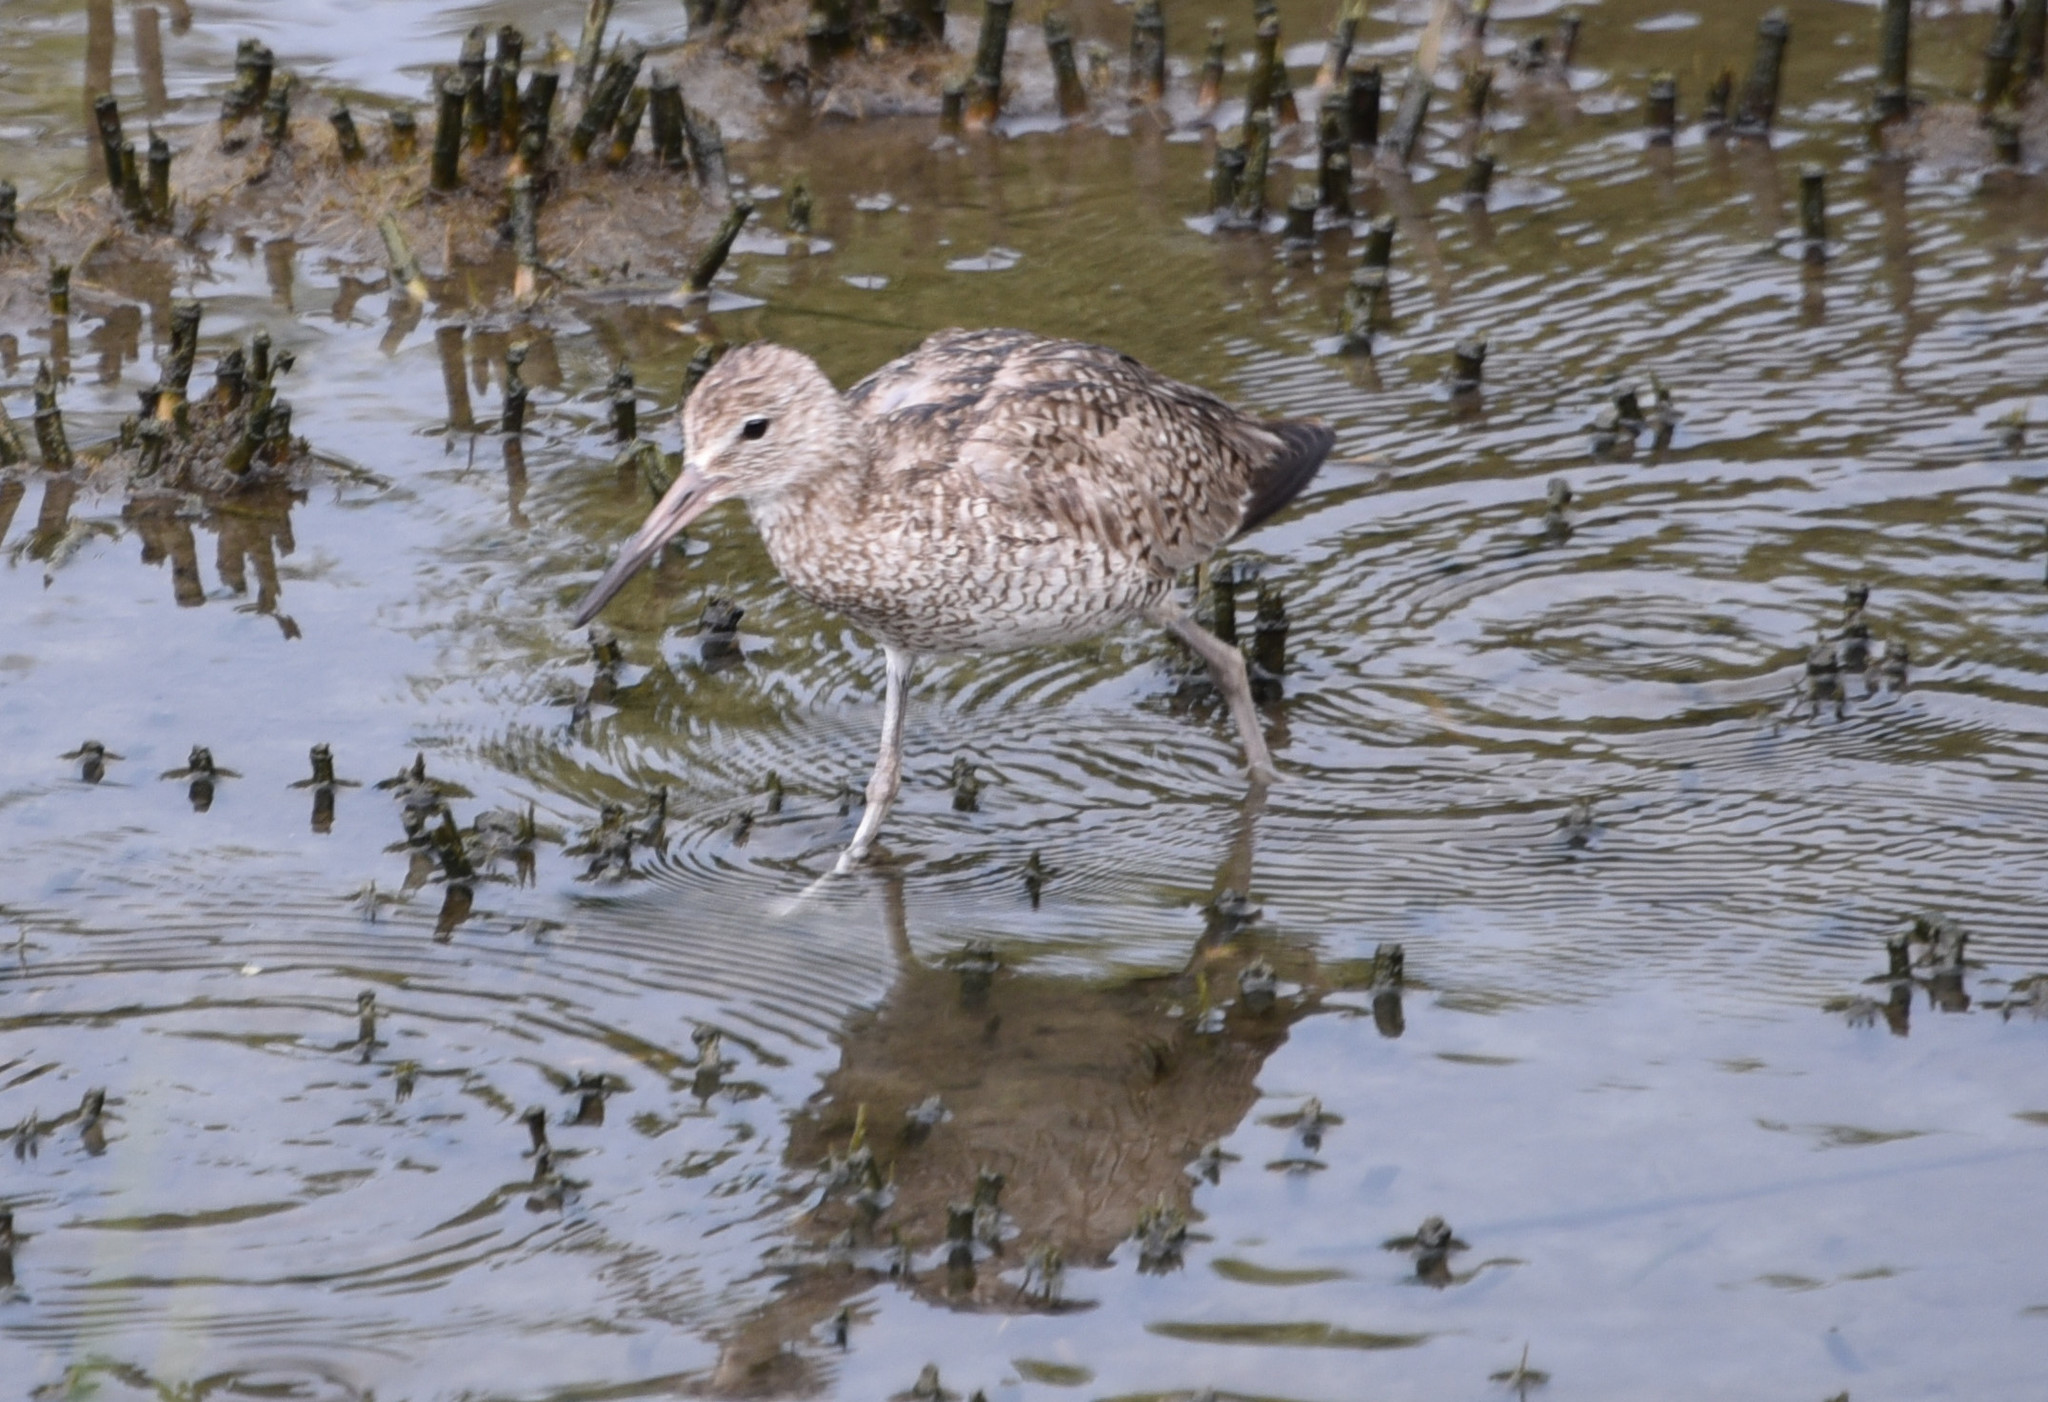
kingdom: Animalia
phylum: Chordata
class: Aves
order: Charadriiformes
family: Scolopacidae
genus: Tringa
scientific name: Tringa semipalmata
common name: Willet
